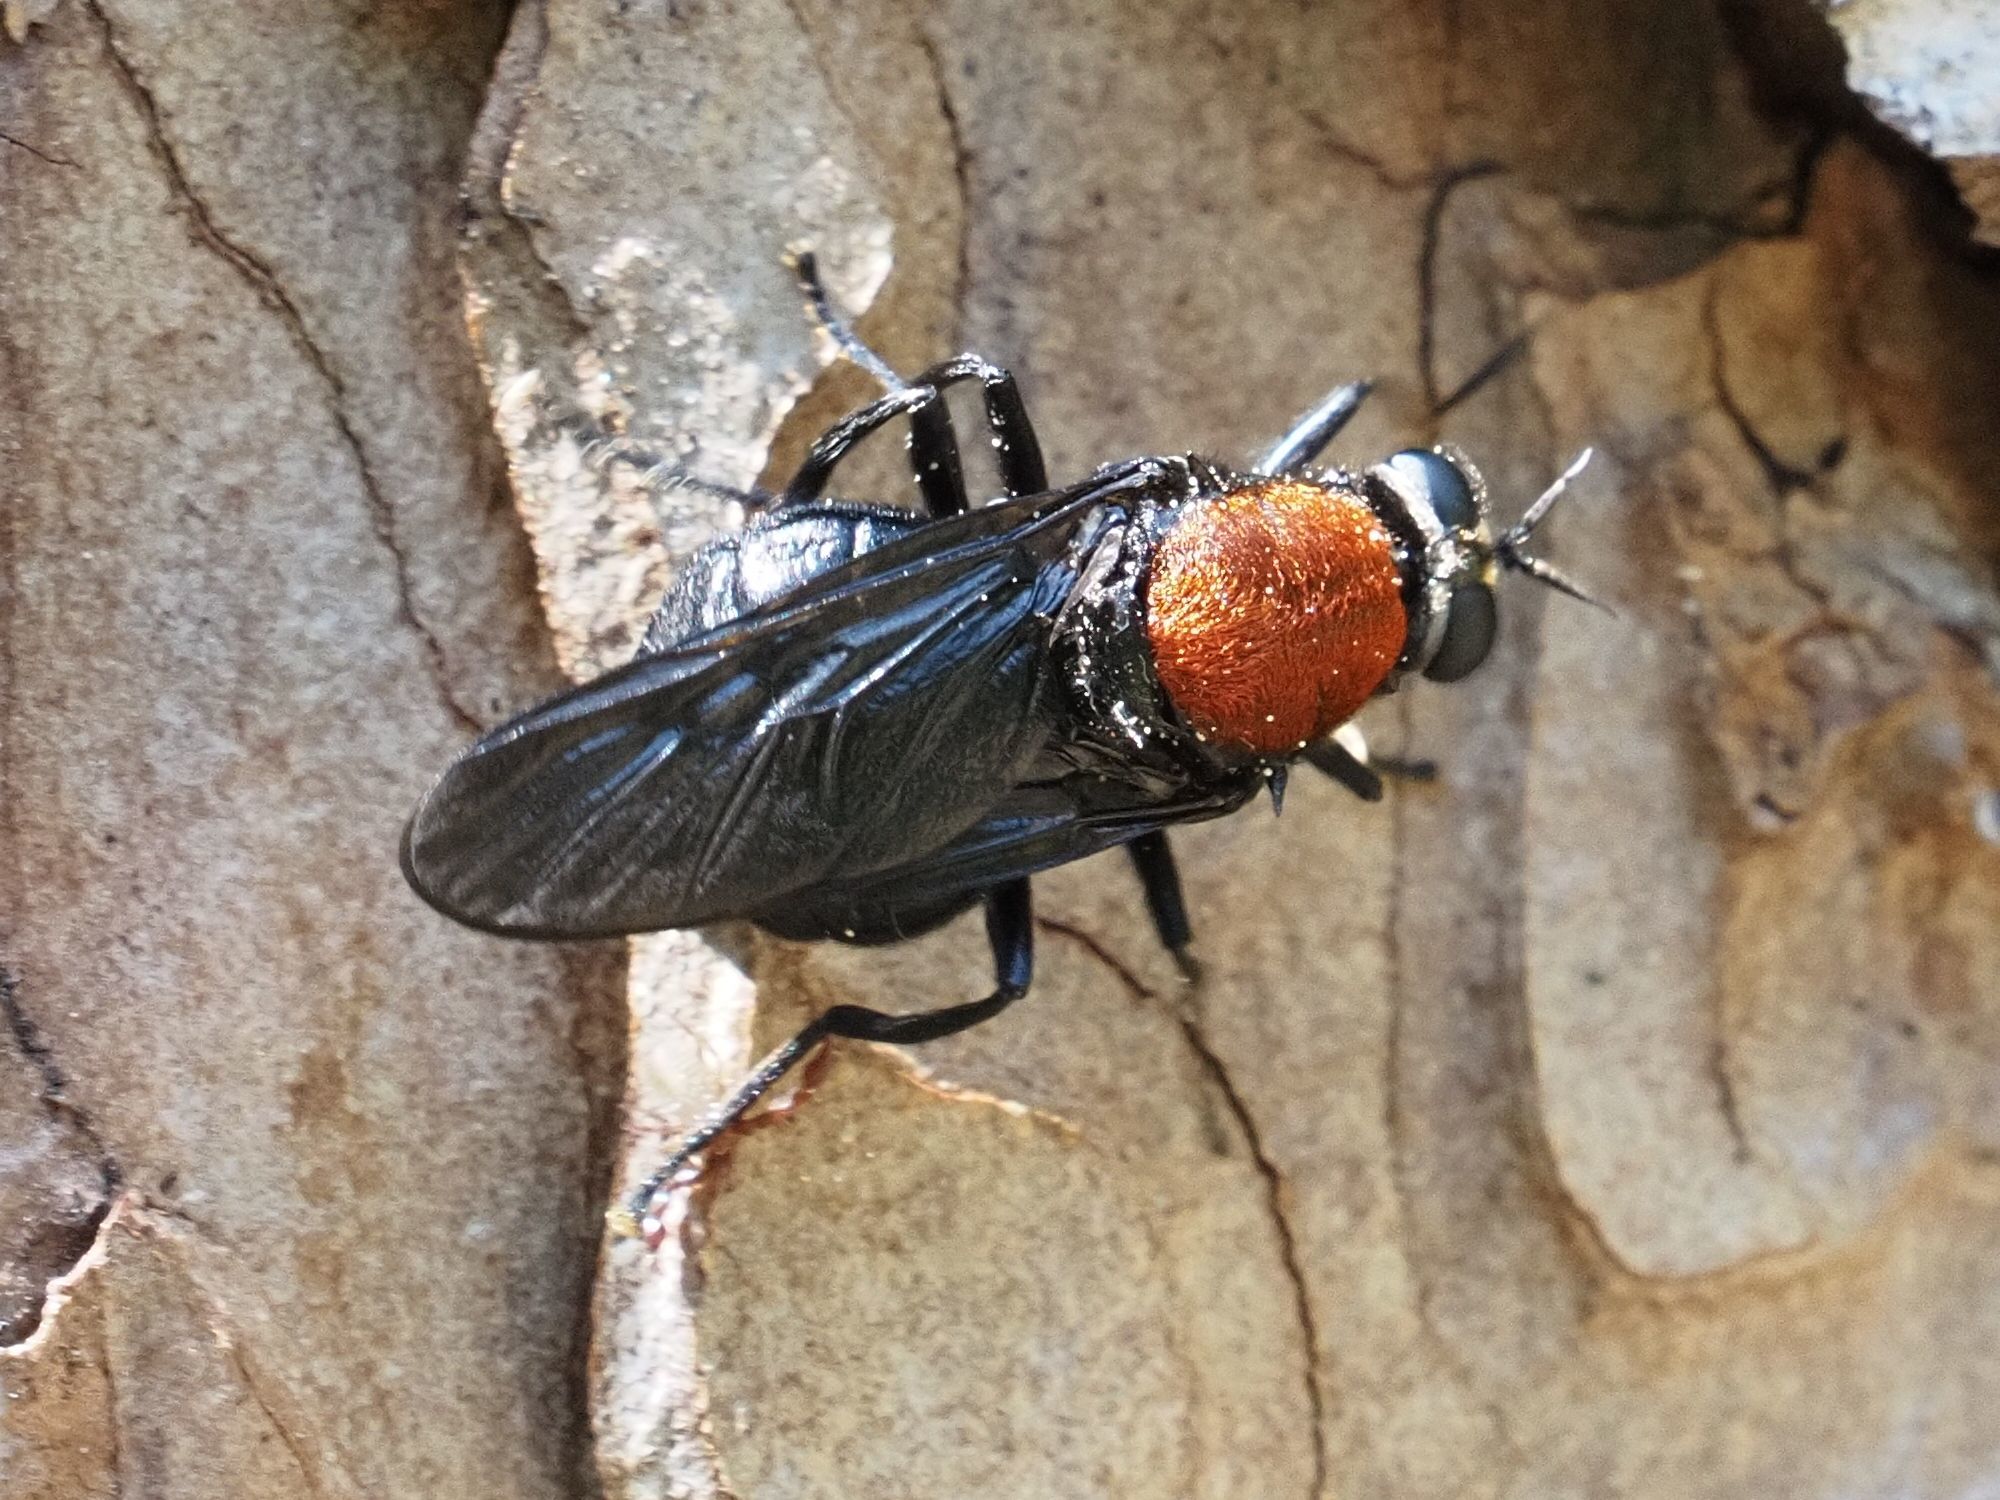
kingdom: Animalia
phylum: Arthropoda
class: Insecta
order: Diptera
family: Stratiomyidae
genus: Clitellaria
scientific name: Clitellaria ephippium
